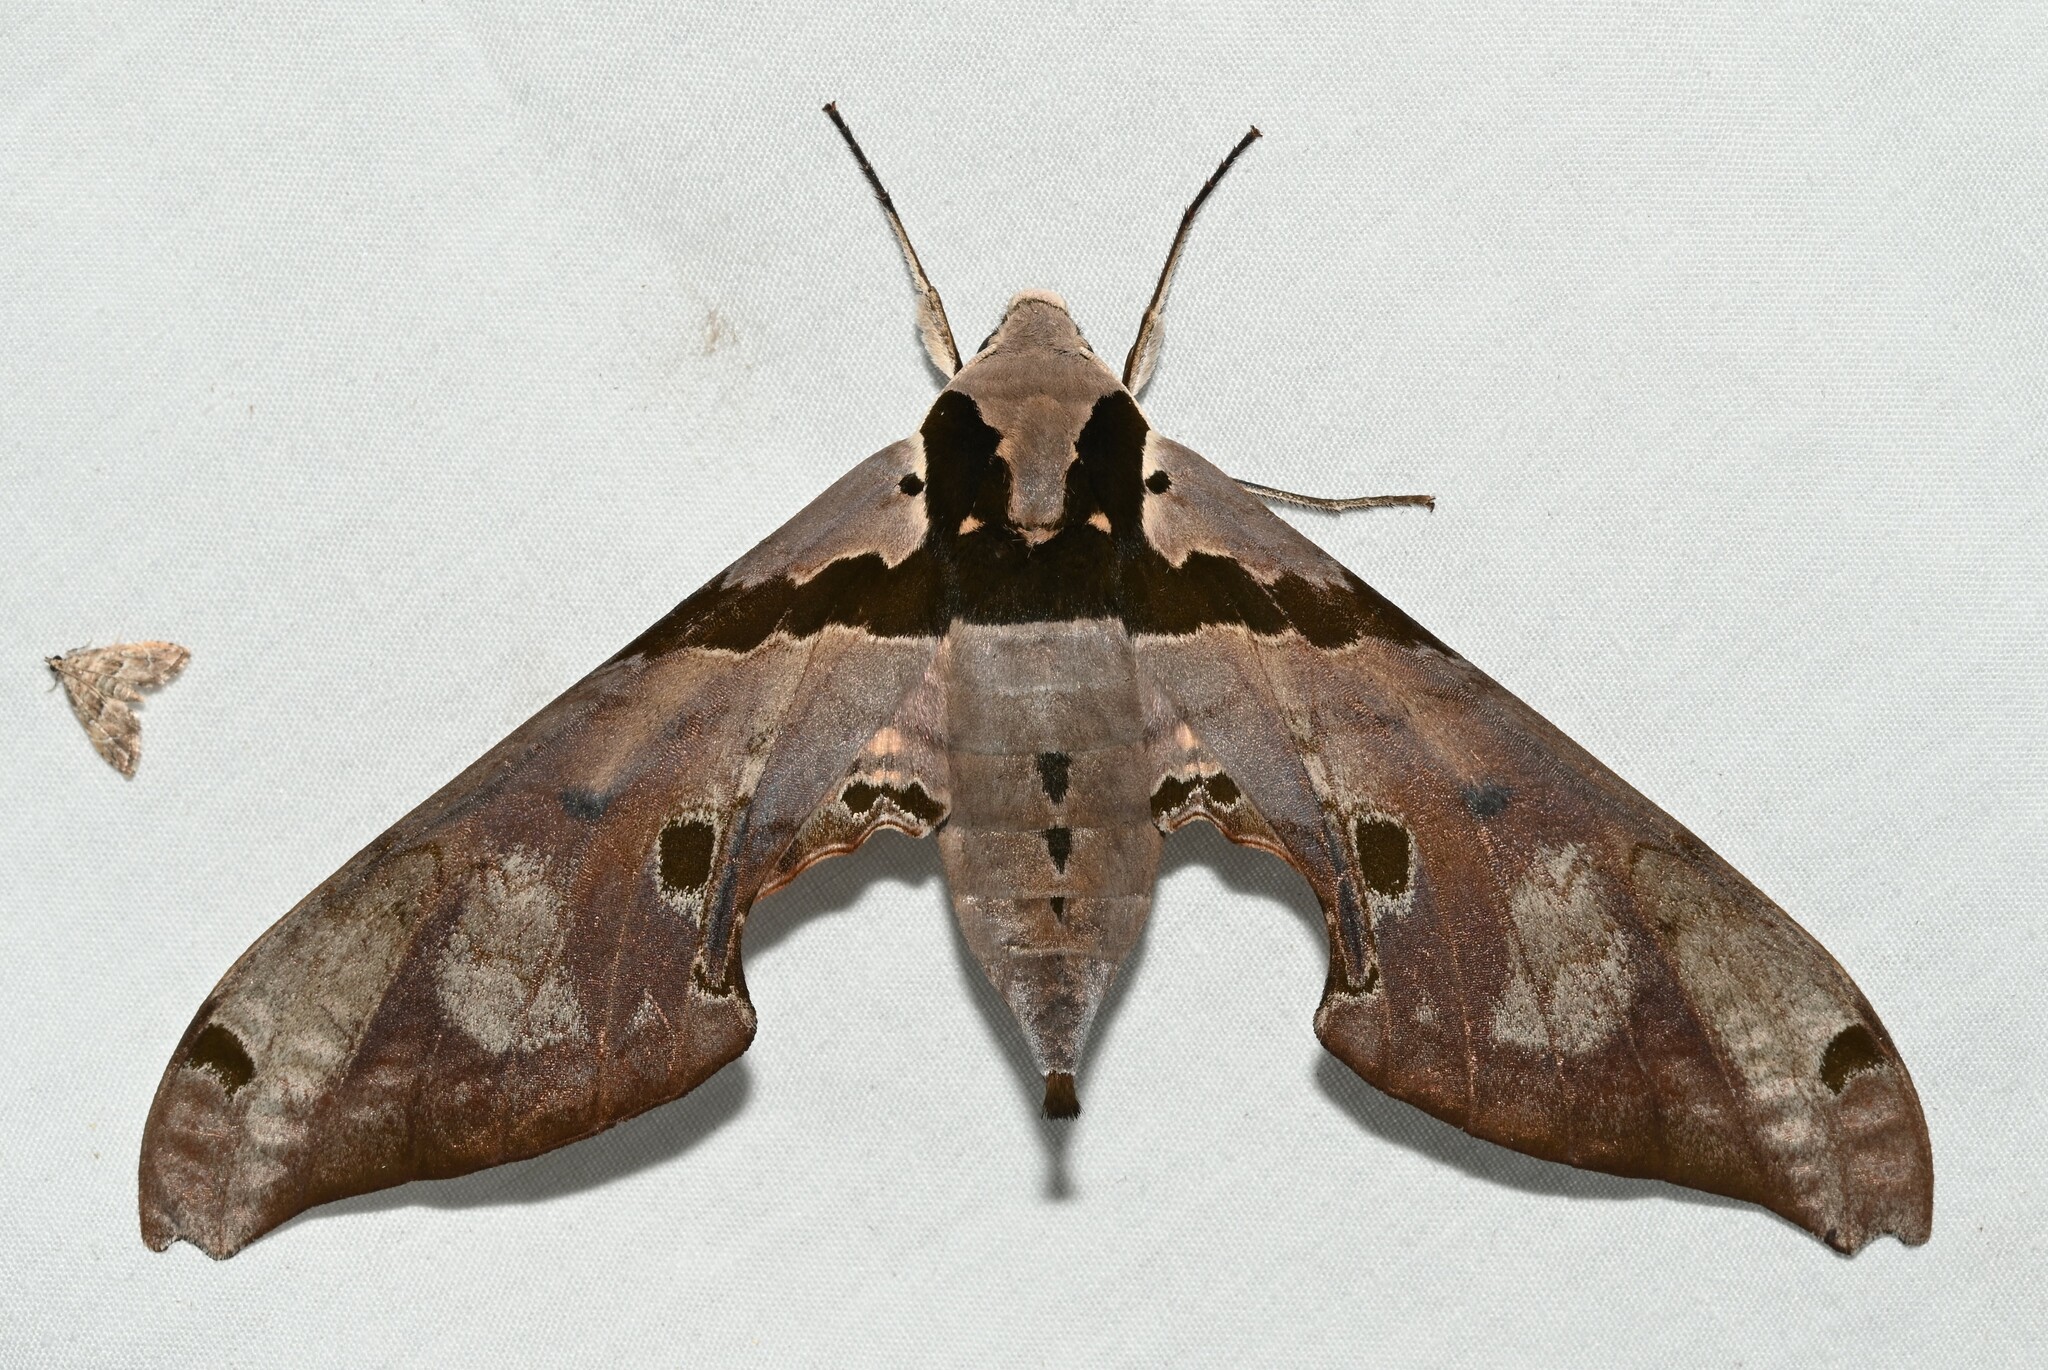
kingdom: Animalia
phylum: Arthropoda
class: Insecta
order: Lepidoptera
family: Sphingidae
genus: Adhemarius
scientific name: Adhemarius gannascus
